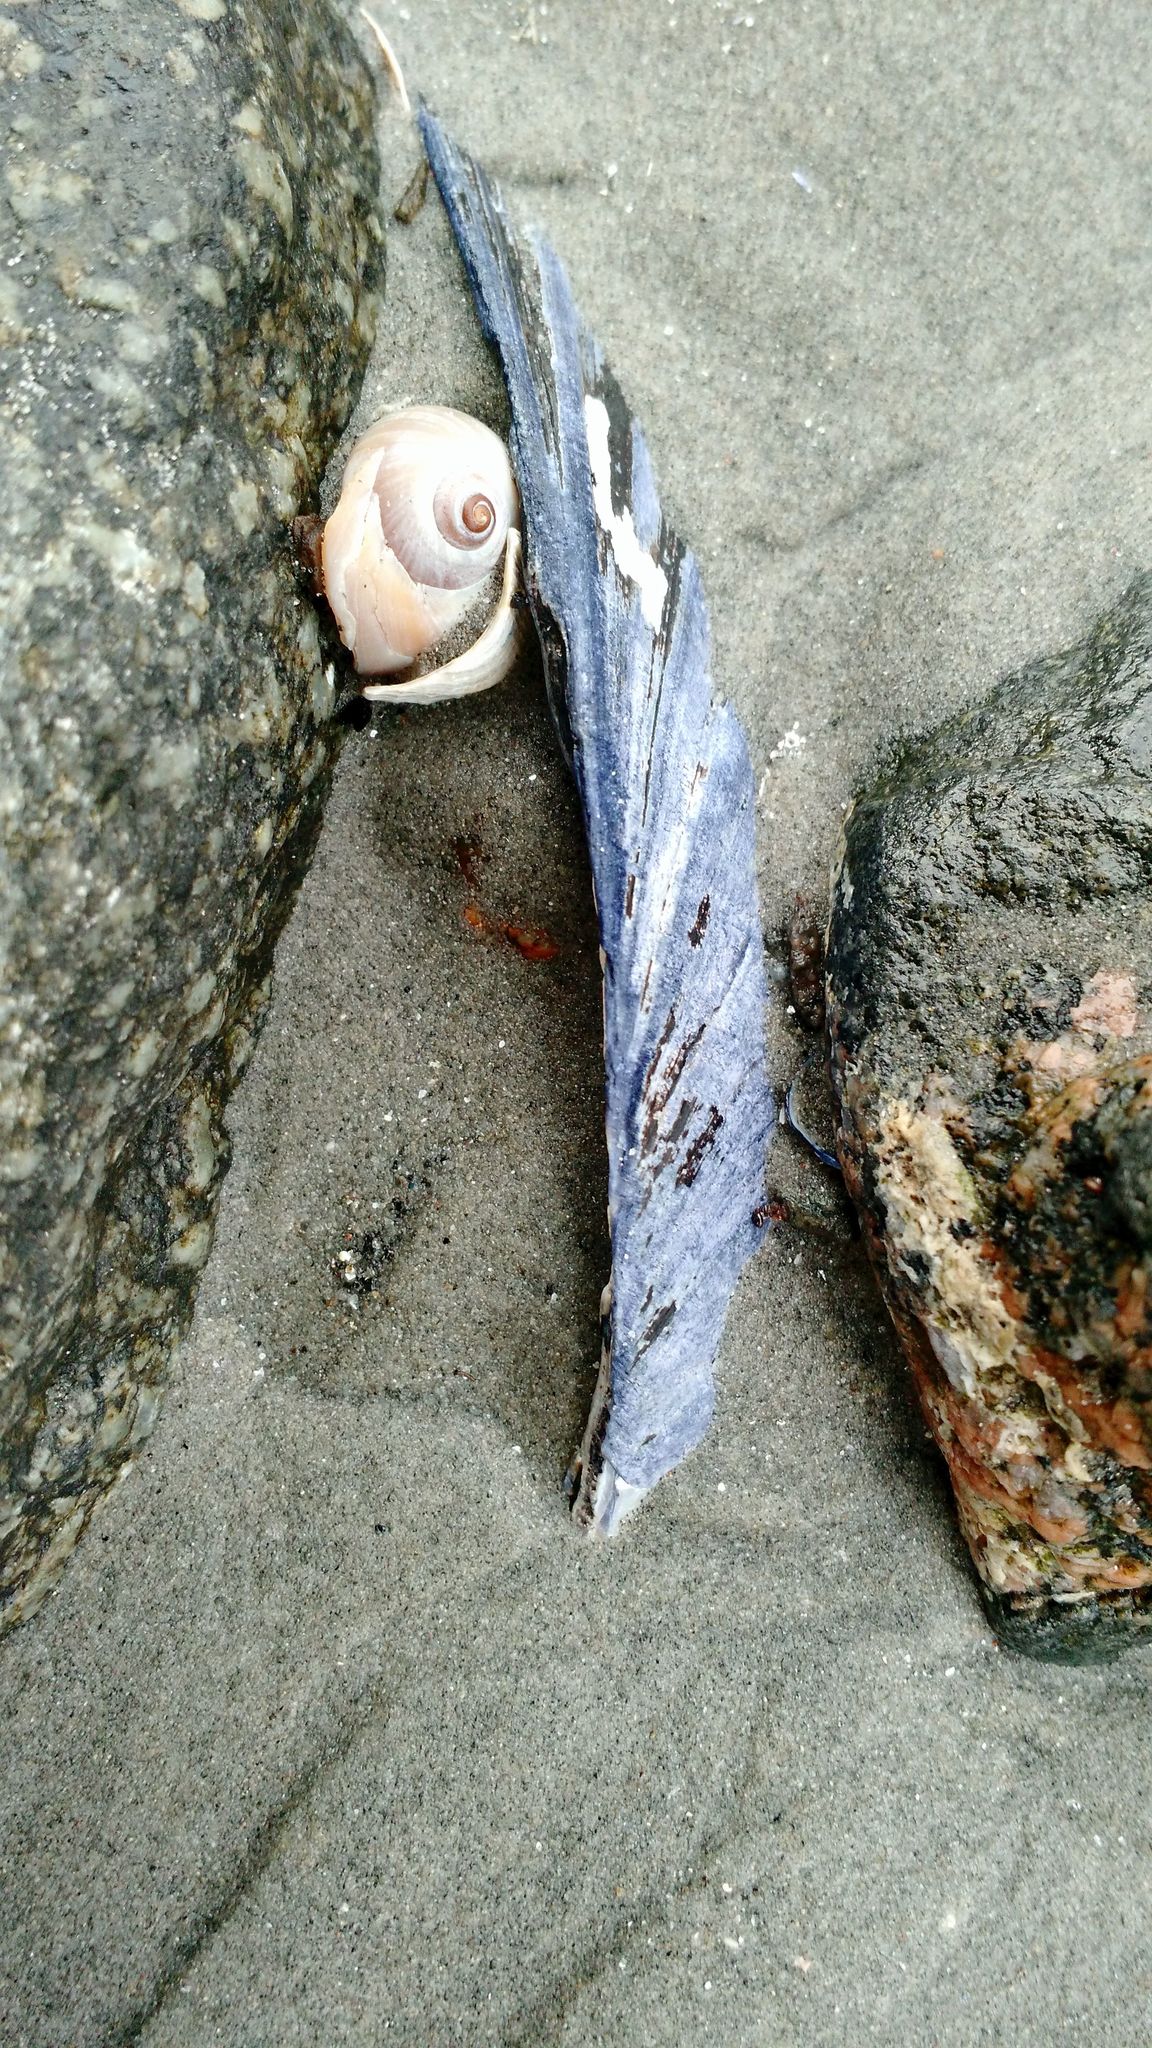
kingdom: Animalia
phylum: Mollusca
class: Bivalvia
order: Mytilida
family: Mytilidae
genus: Mytilus
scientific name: Mytilus edulis
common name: Blue mussel
